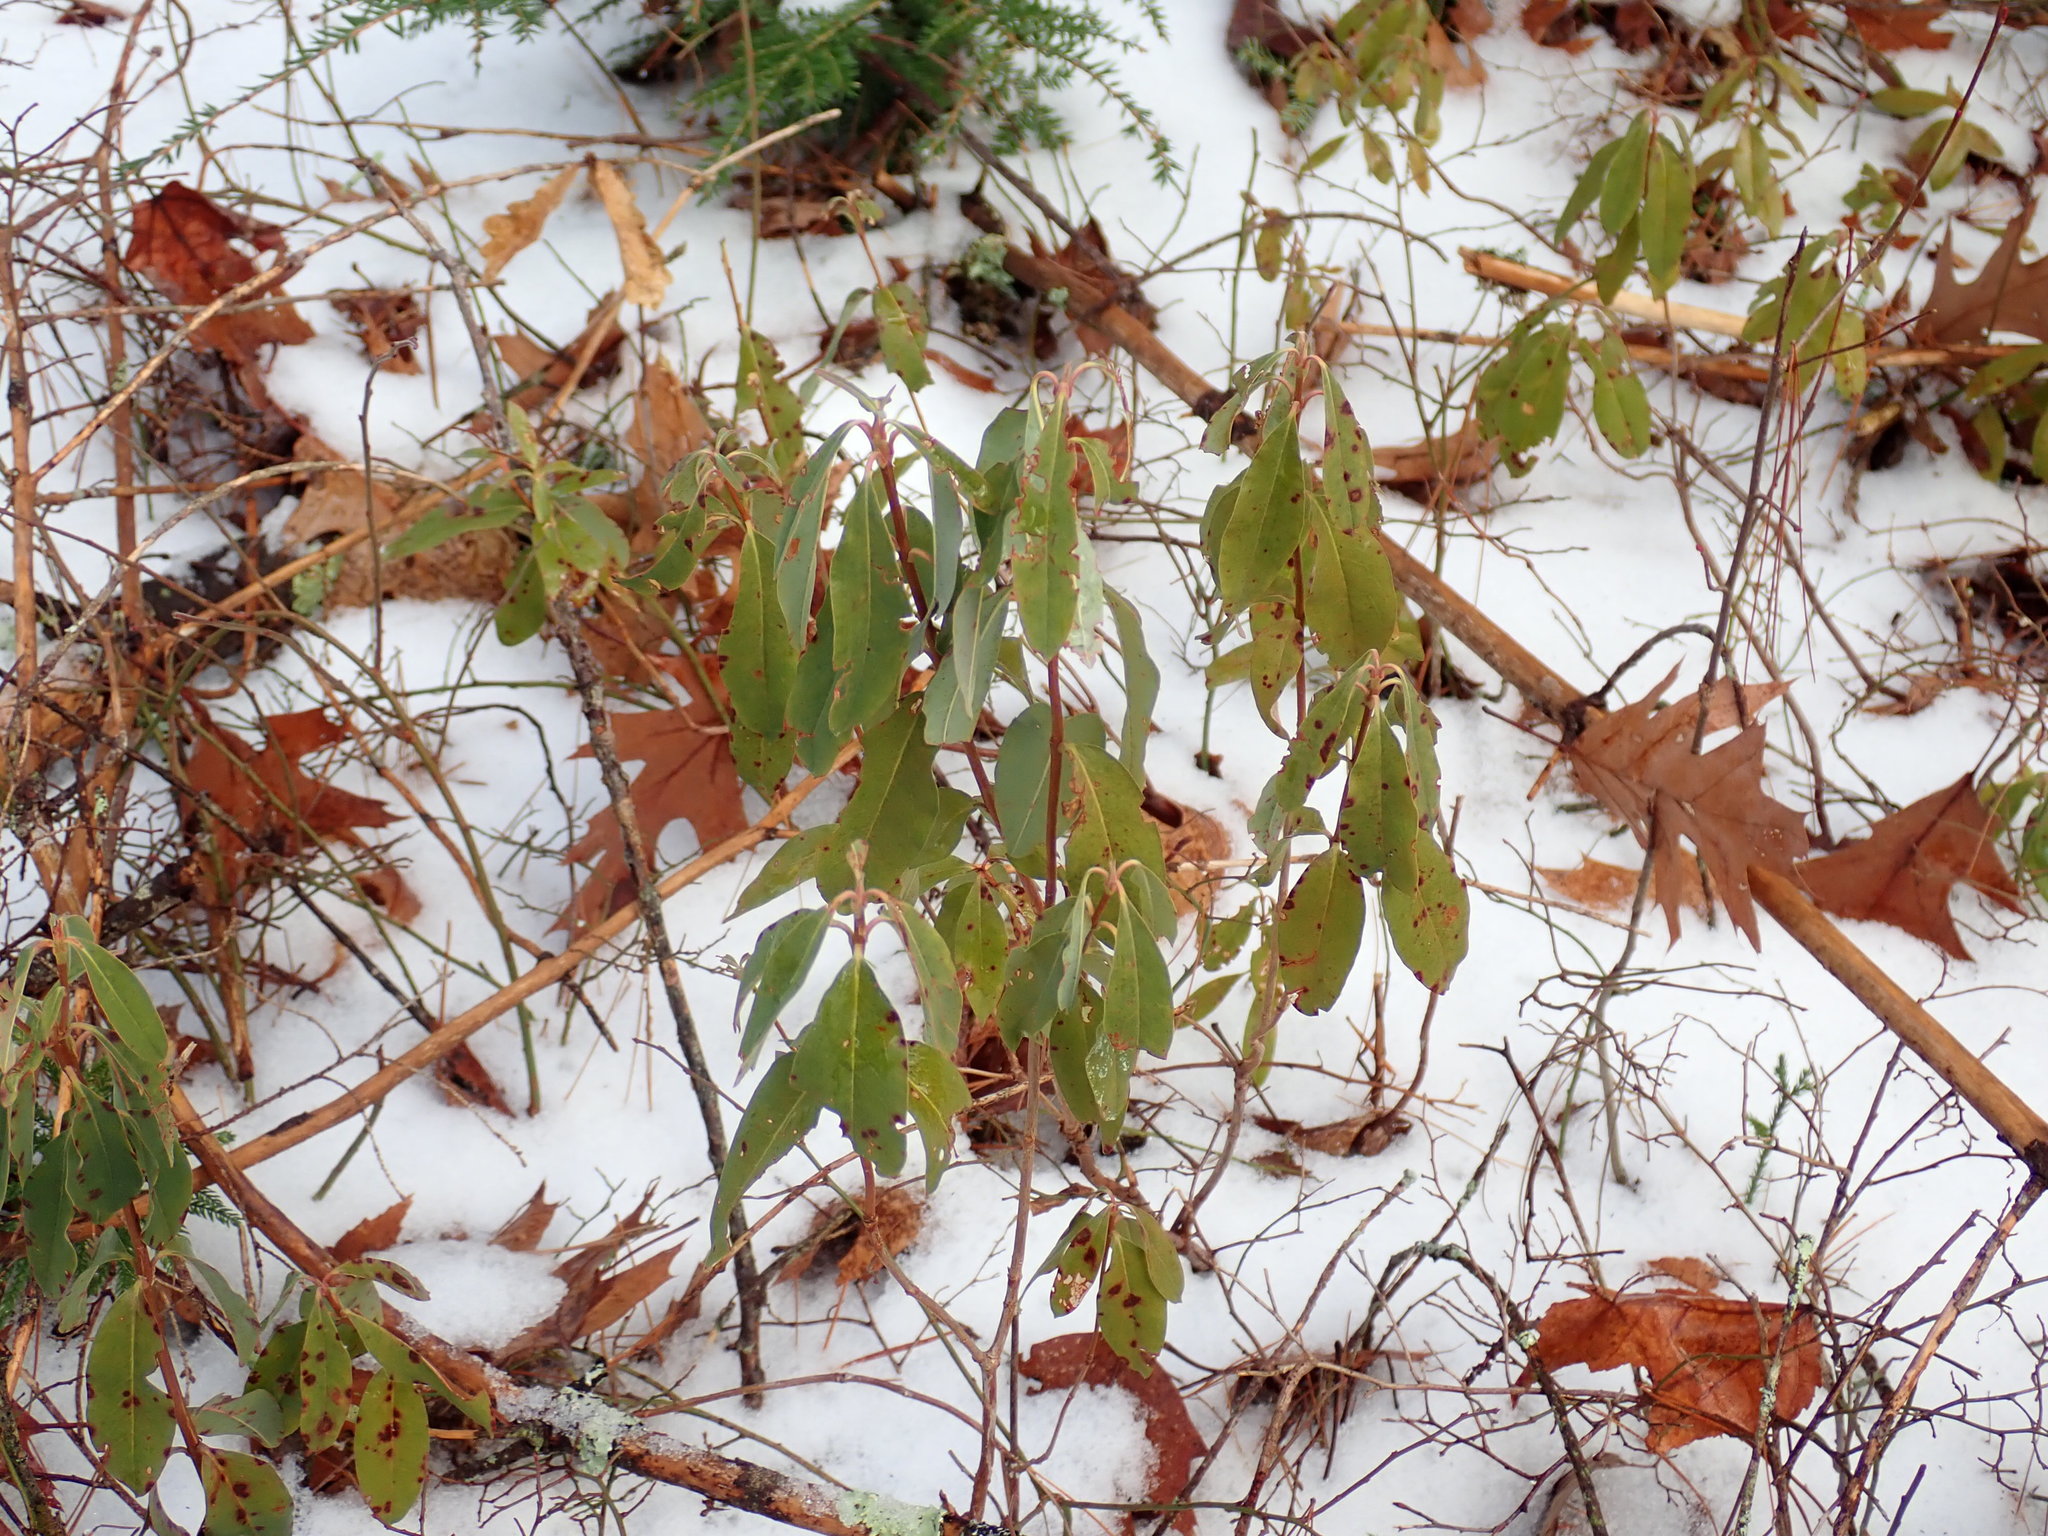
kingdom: Plantae
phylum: Tracheophyta
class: Magnoliopsida
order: Ericales
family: Ericaceae
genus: Kalmia
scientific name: Kalmia angustifolia
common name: Sheep-laurel
